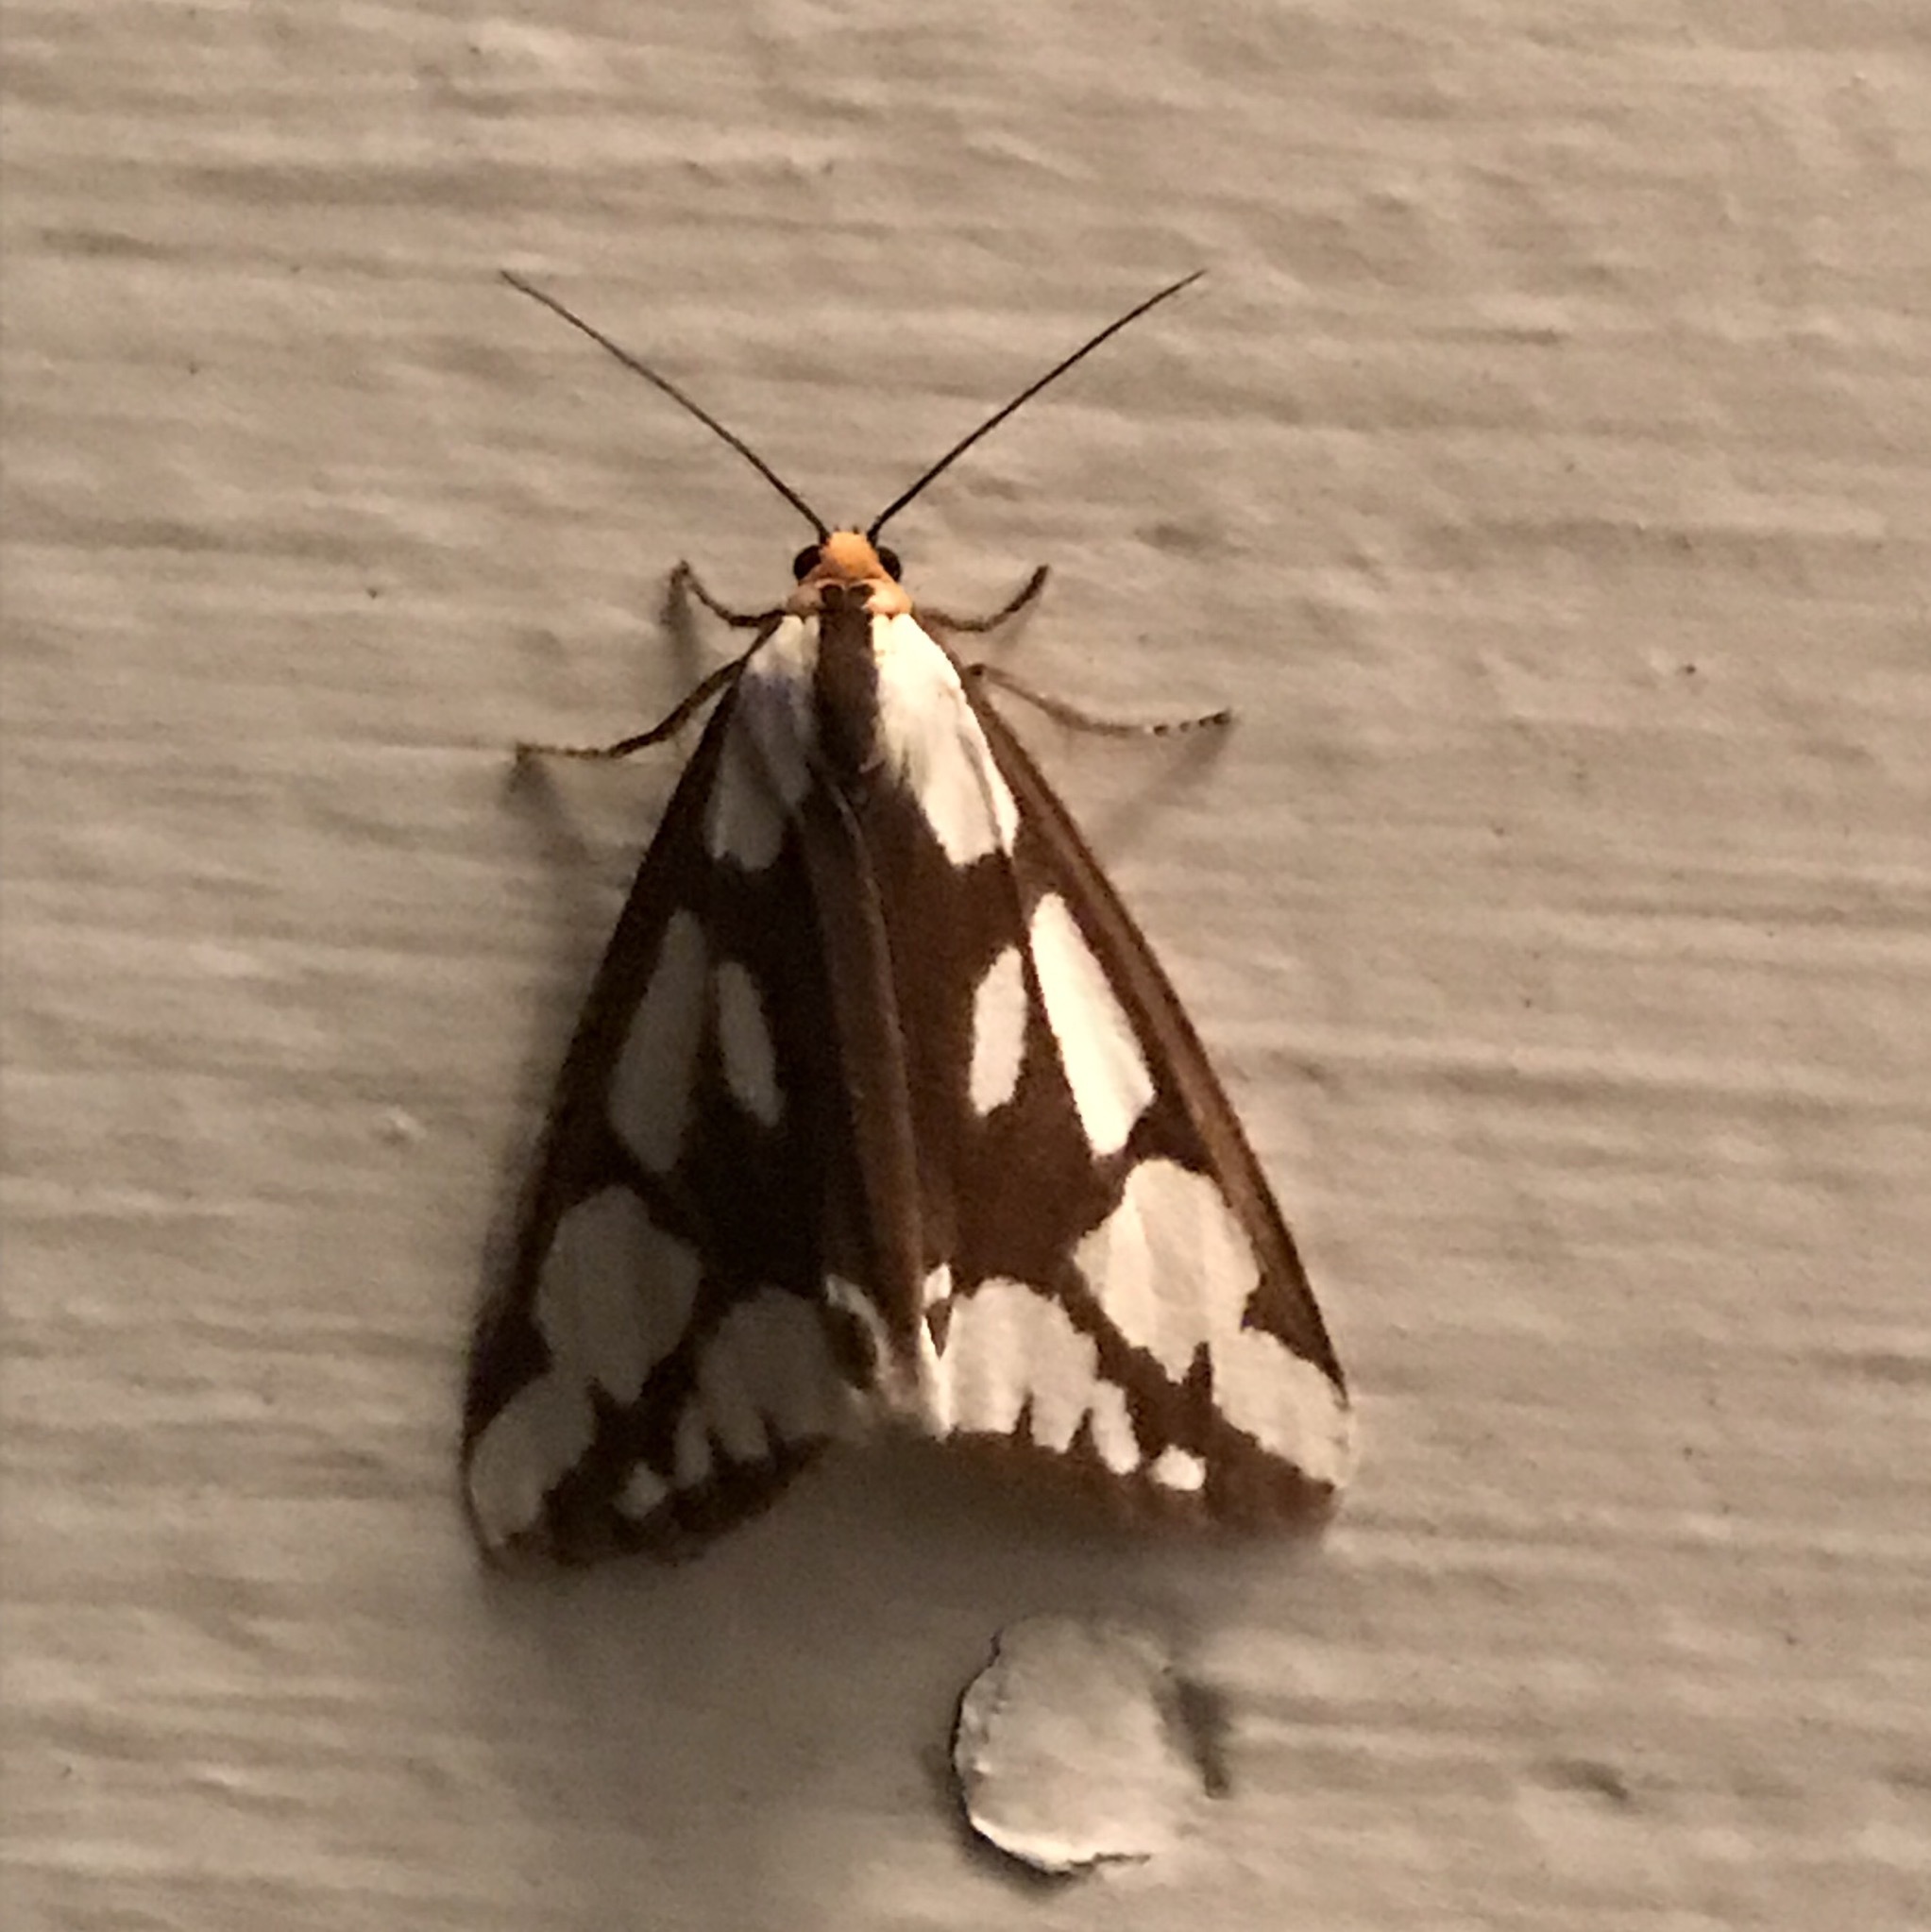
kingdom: Animalia
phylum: Arthropoda
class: Insecta
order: Lepidoptera
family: Erebidae
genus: Haploa
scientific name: Haploa confusa
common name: Confused haploa moth
